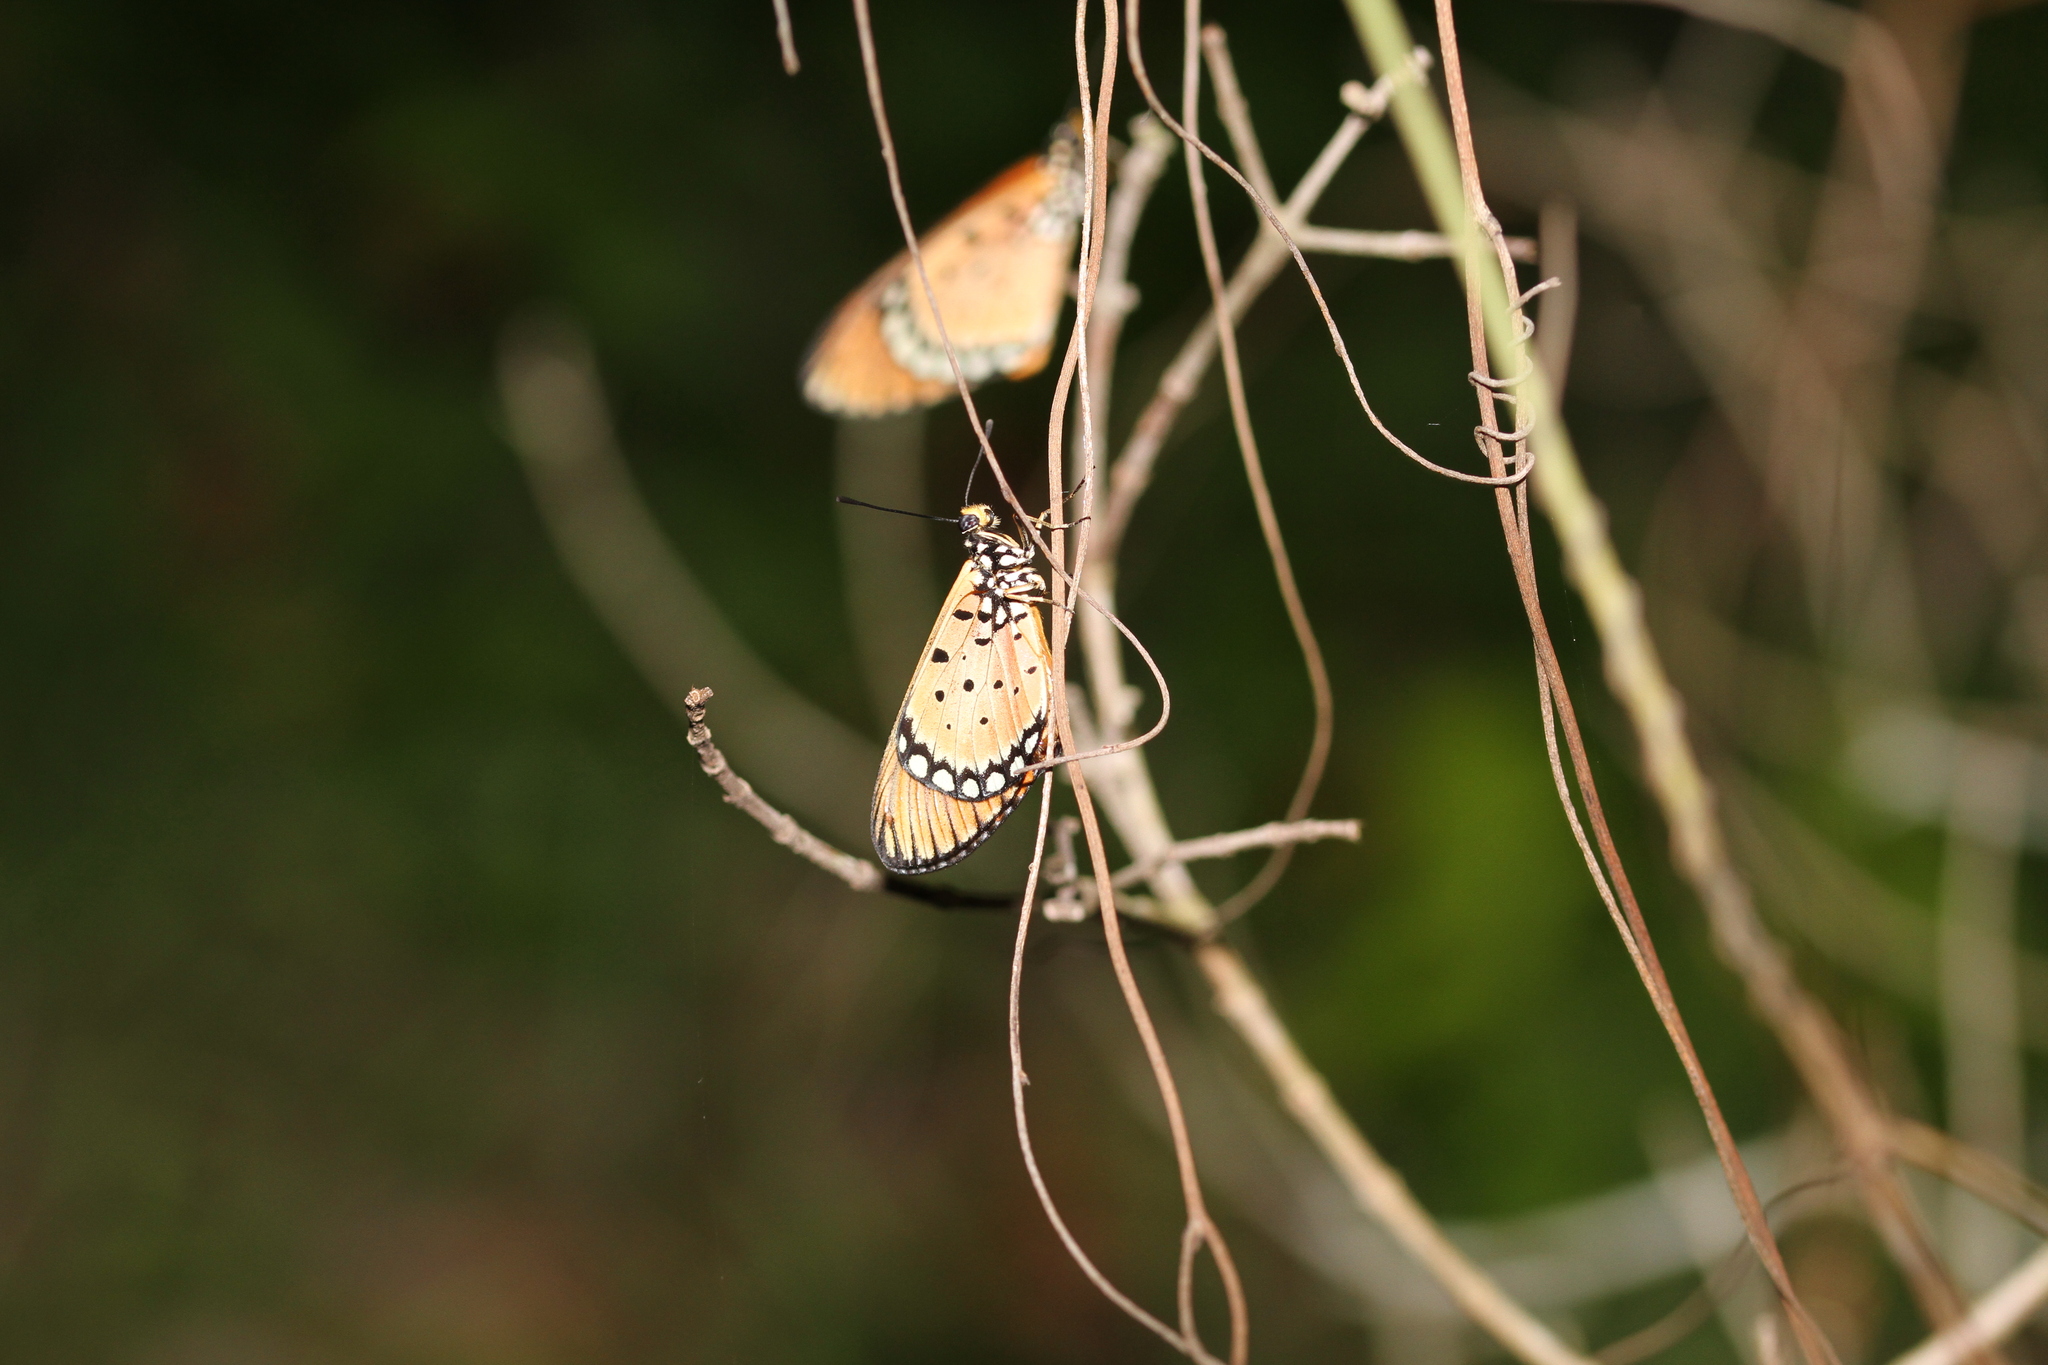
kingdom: Animalia
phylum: Arthropoda
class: Insecta
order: Lepidoptera
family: Nymphalidae
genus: Acraea
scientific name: Acraea terpsicore
